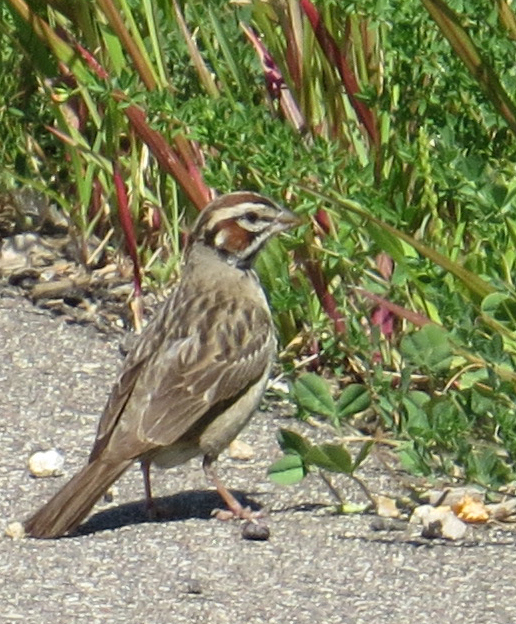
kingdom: Animalia
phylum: Chordata
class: Aves
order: Passeriformes
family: Passerellidae
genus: Chondestes
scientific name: Chondestes grammacus
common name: Lark sparrow
